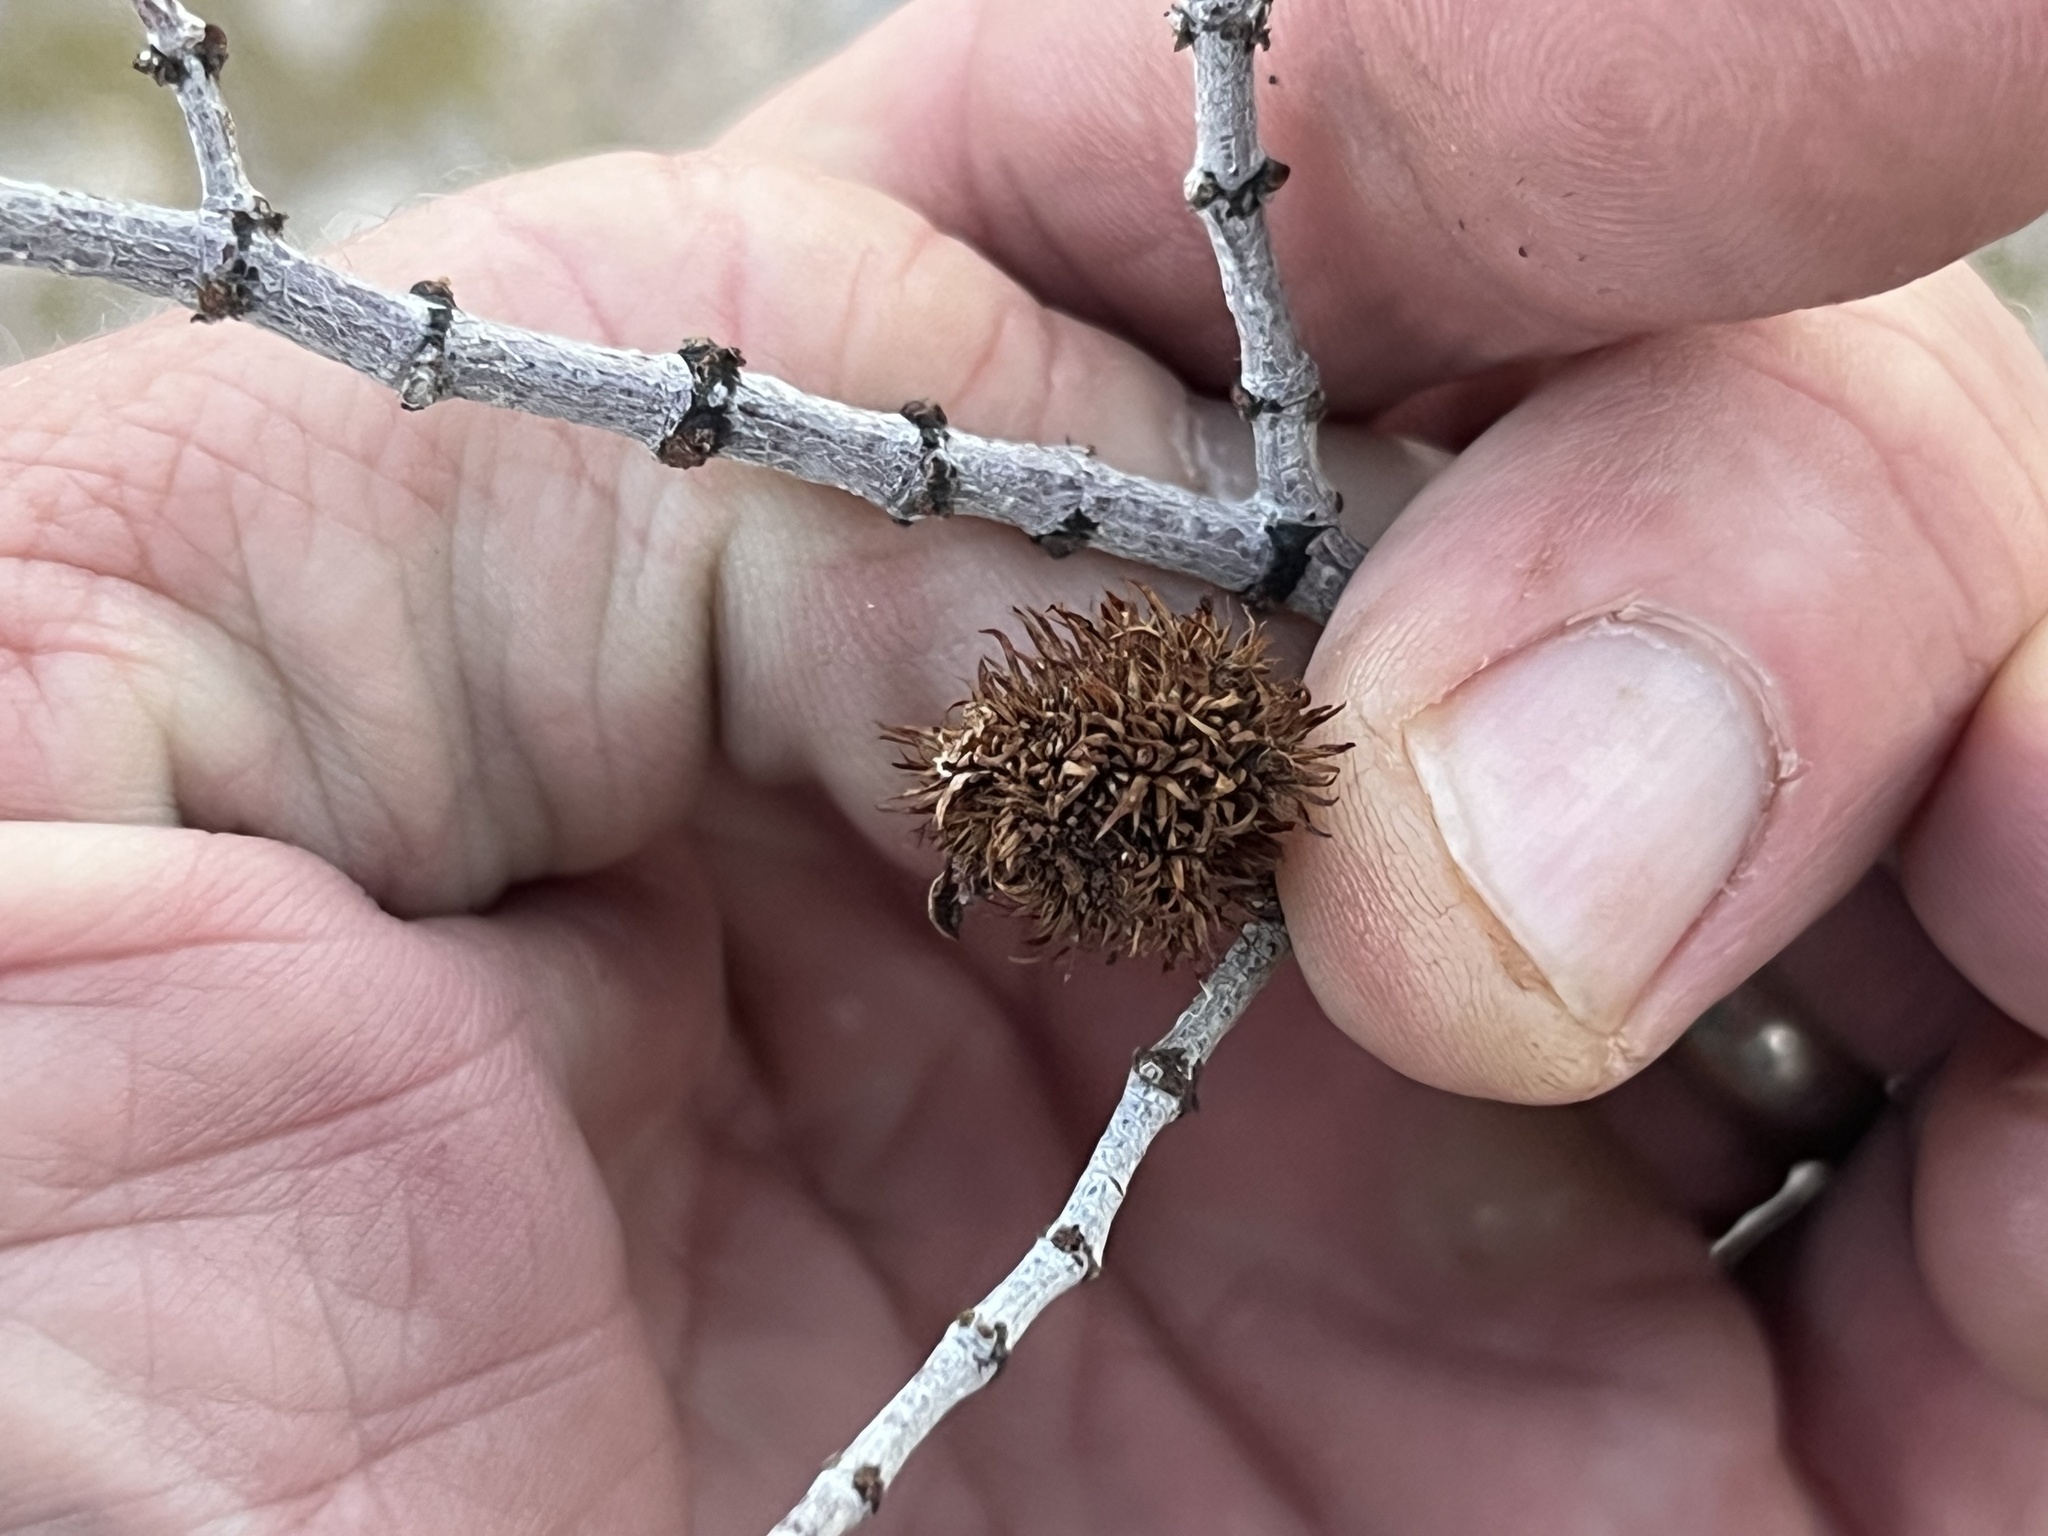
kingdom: Animalia
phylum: Arthropoda
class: Insecta
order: Diptera
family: Cecidomyiidae
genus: Asphondylia
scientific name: Asphondylia auripila
